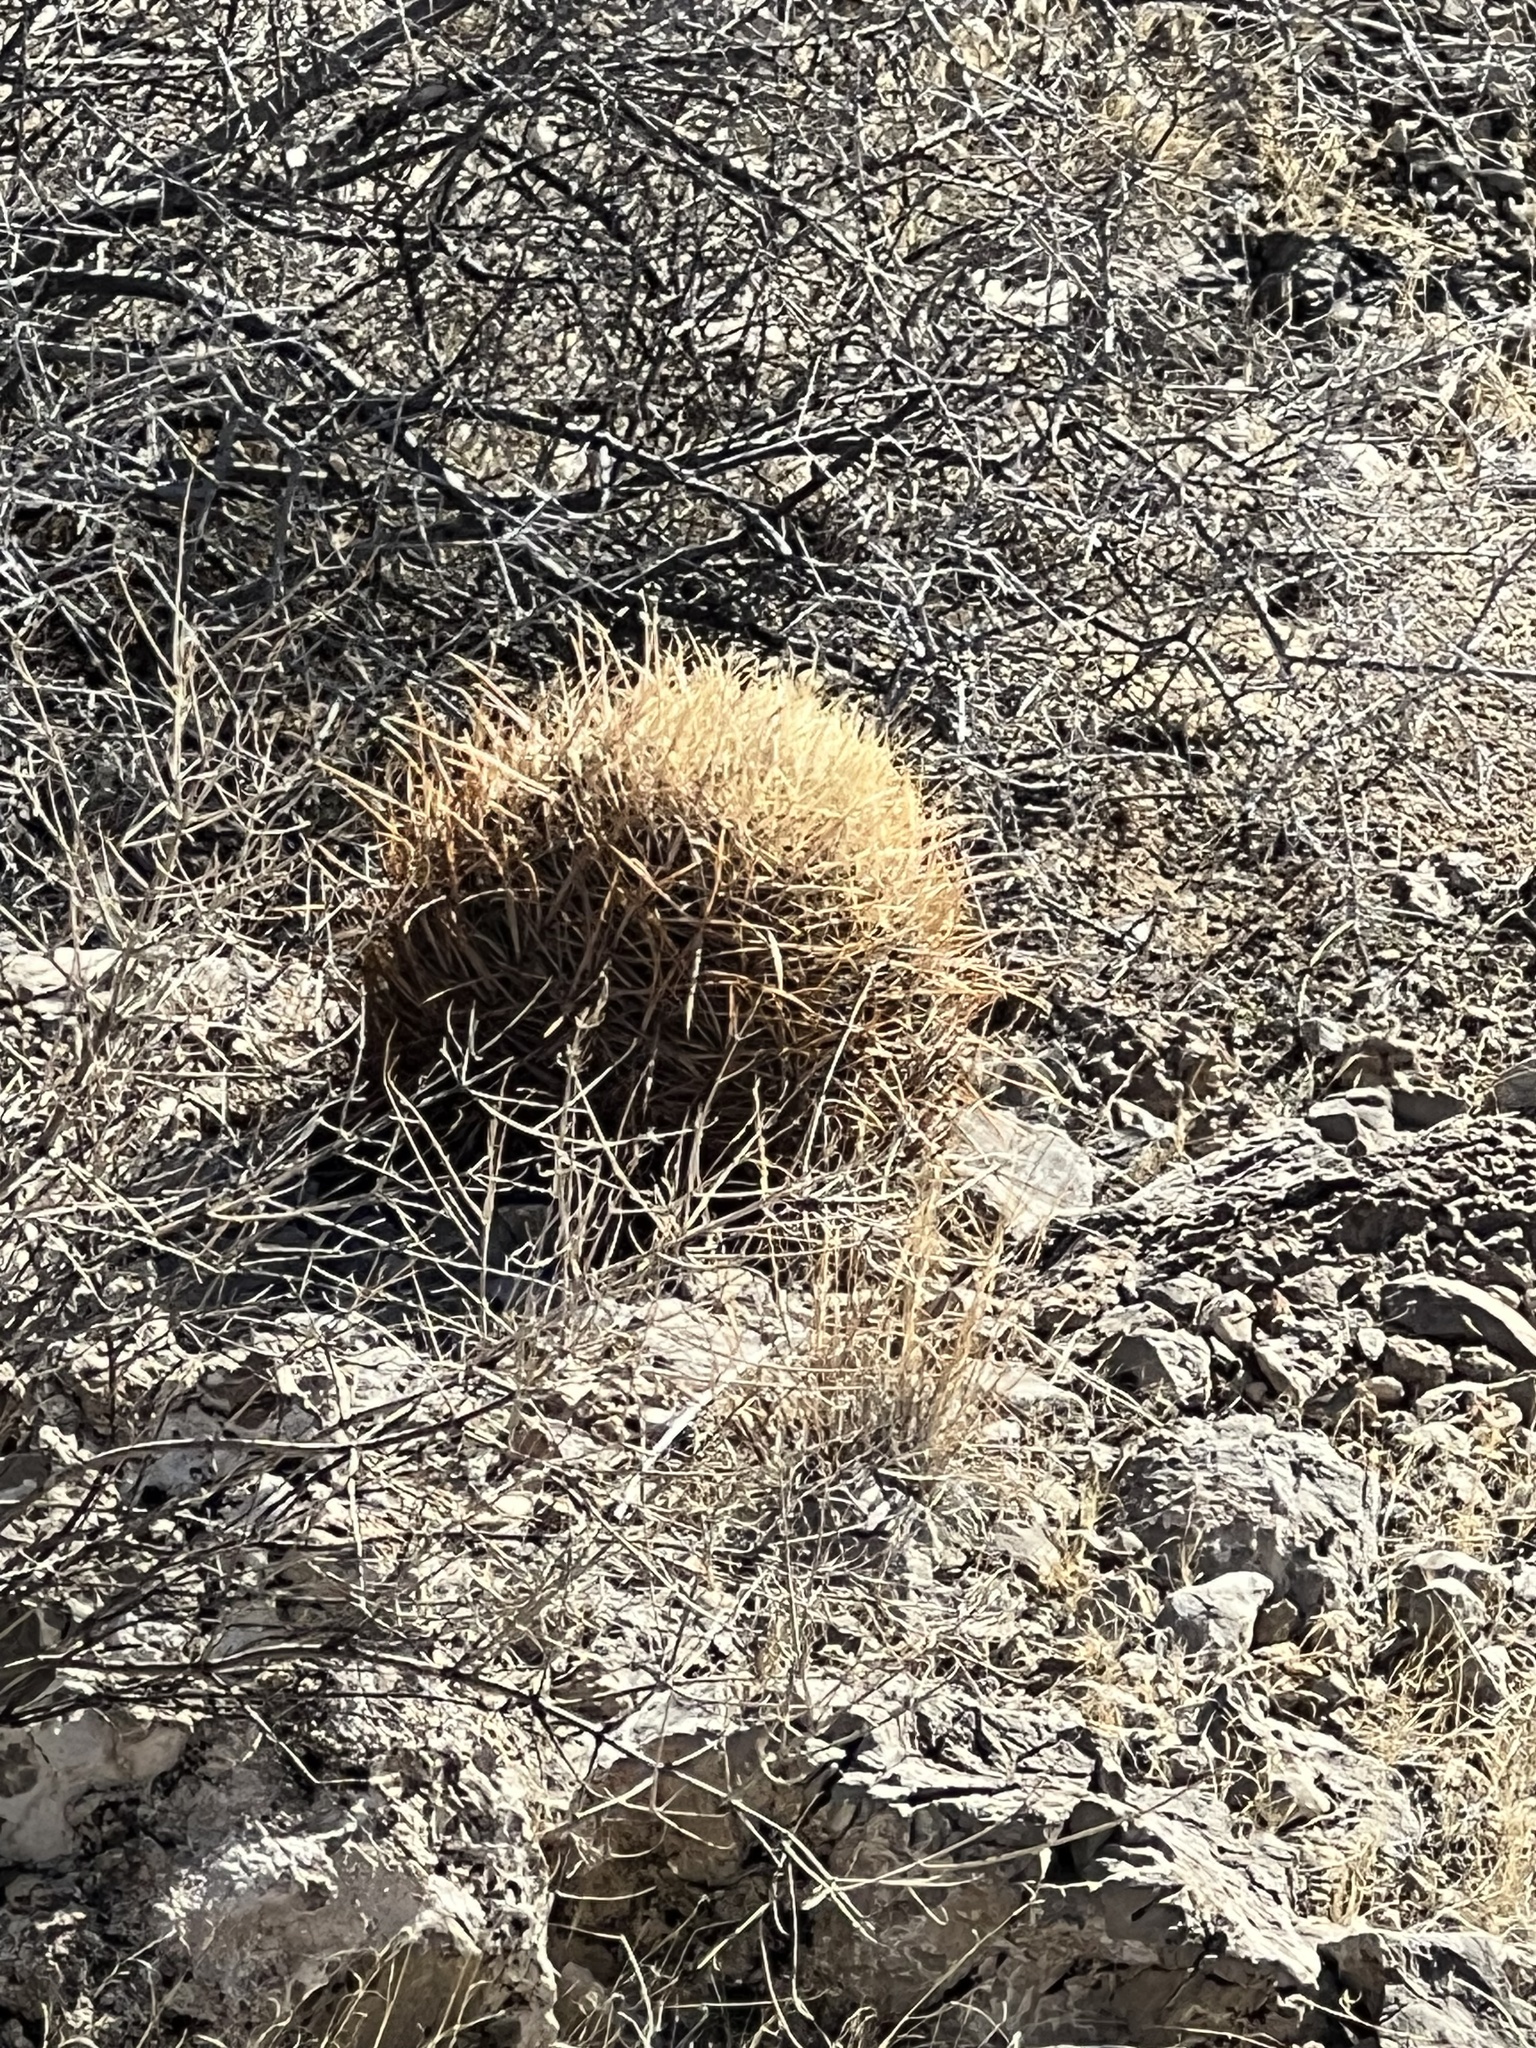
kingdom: Plantae
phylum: Tracheophyta
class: Magnoliopsida
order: Caryophyllales
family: Cactaceae
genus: Ferocactus
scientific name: Ferocactus cylindraceus
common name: California barrel cactus
